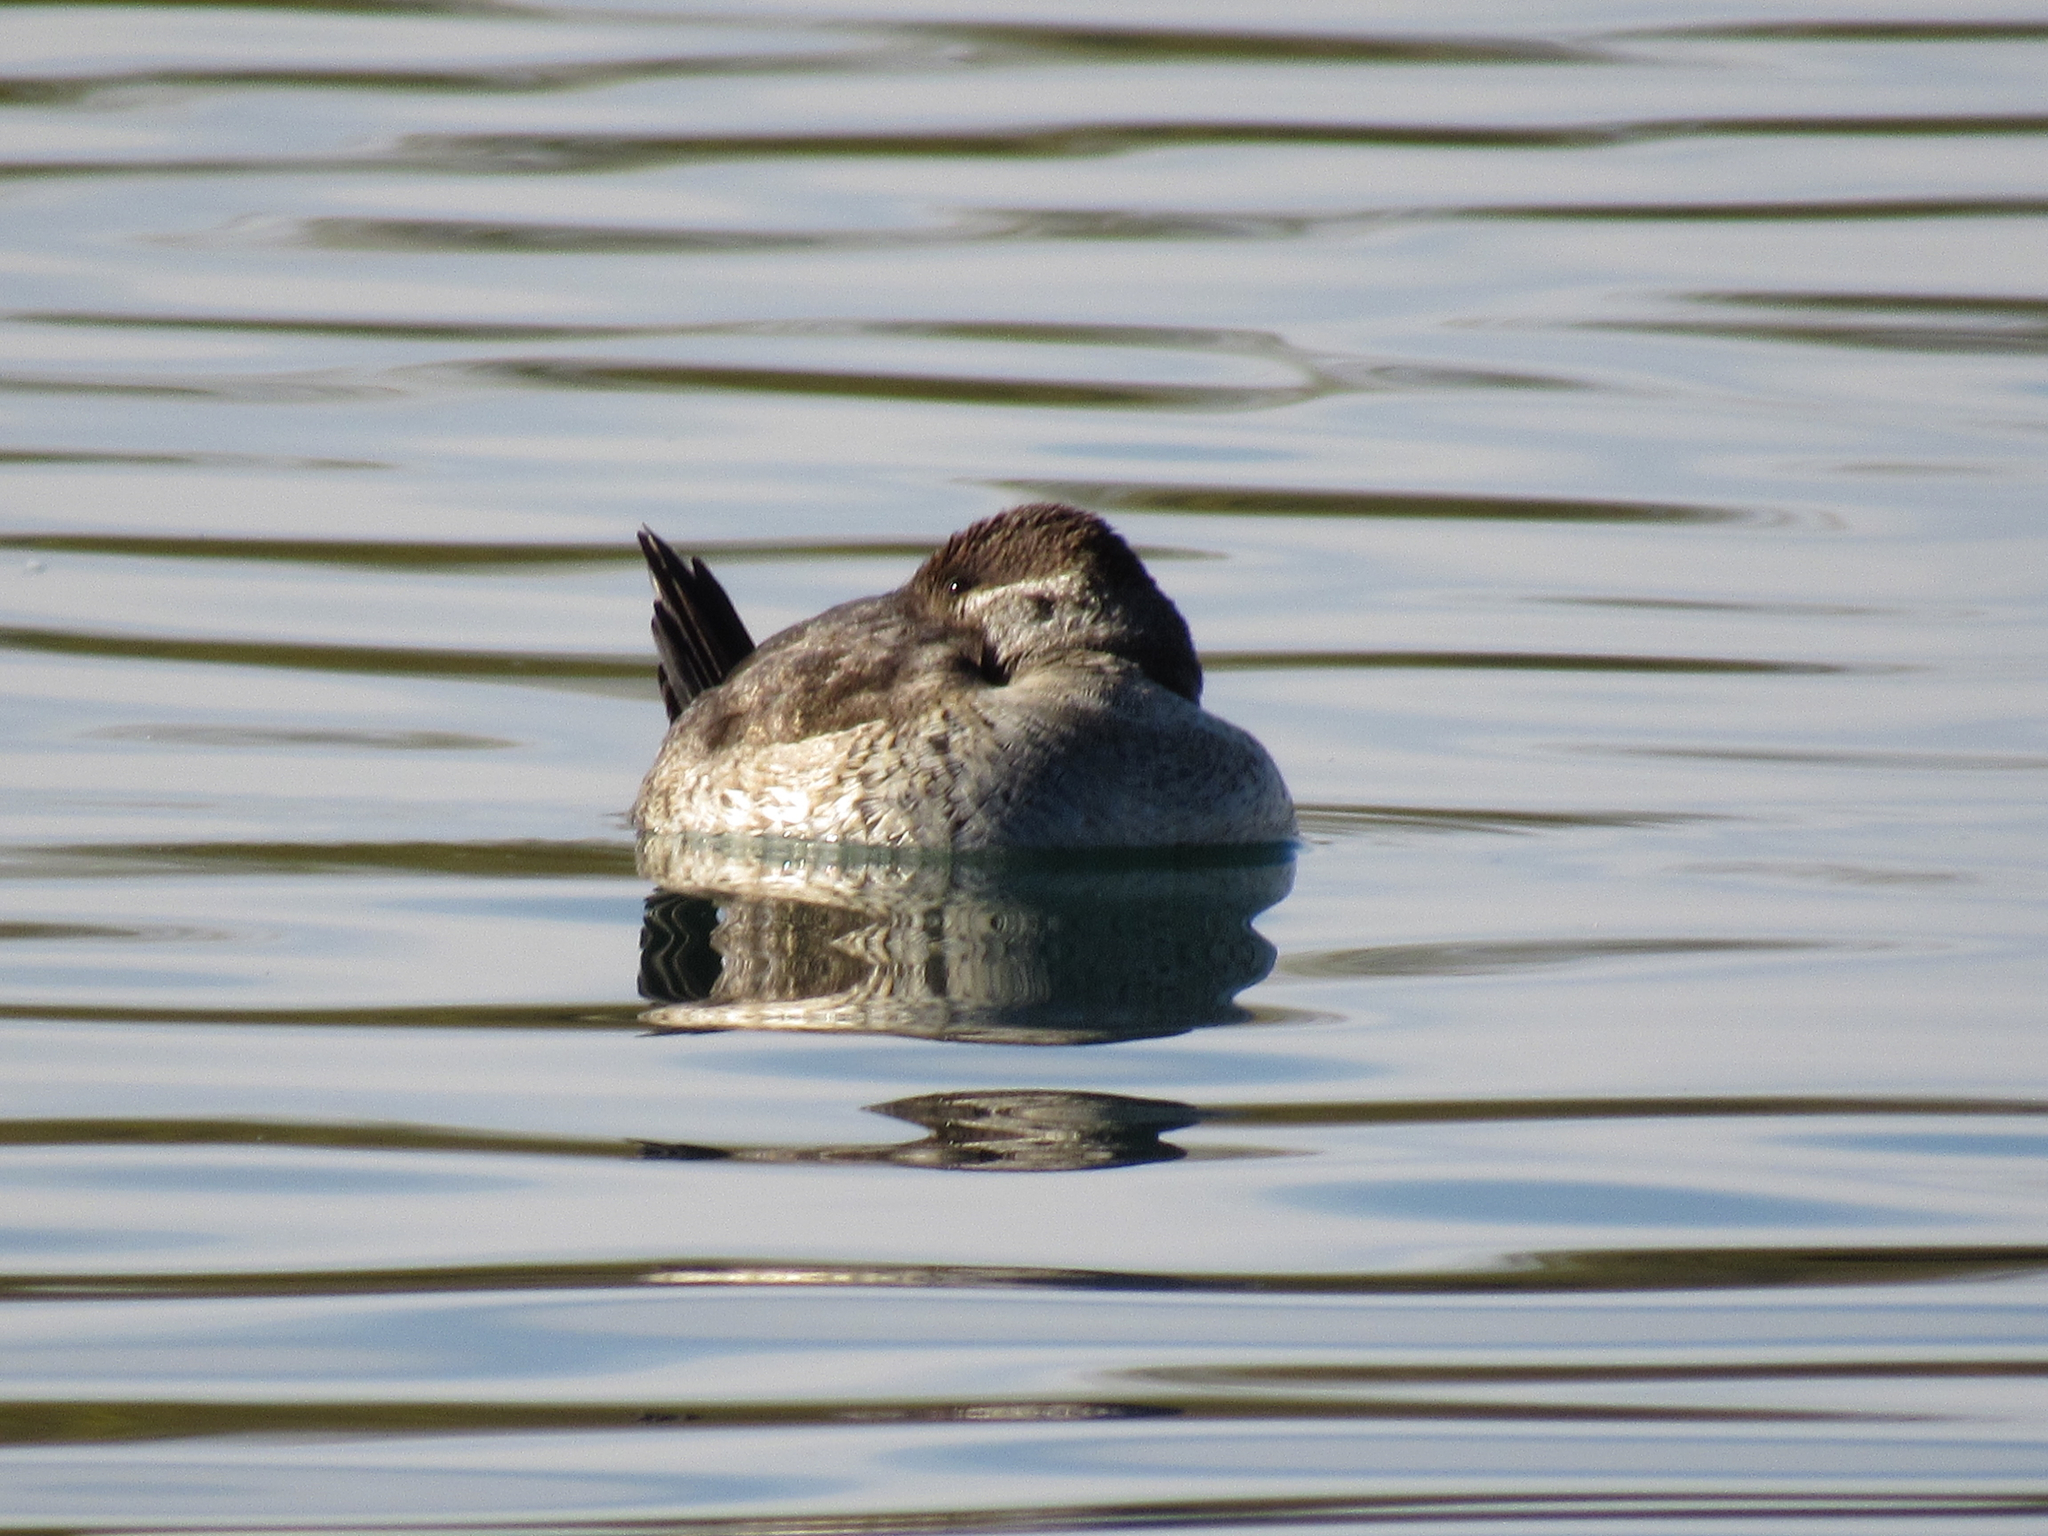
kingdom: Animalia
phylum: Chordata
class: Aves
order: Anseriformes
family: Anatidae
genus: Oxyura
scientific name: Oxyura jamaicensis
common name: Ruddy duck
